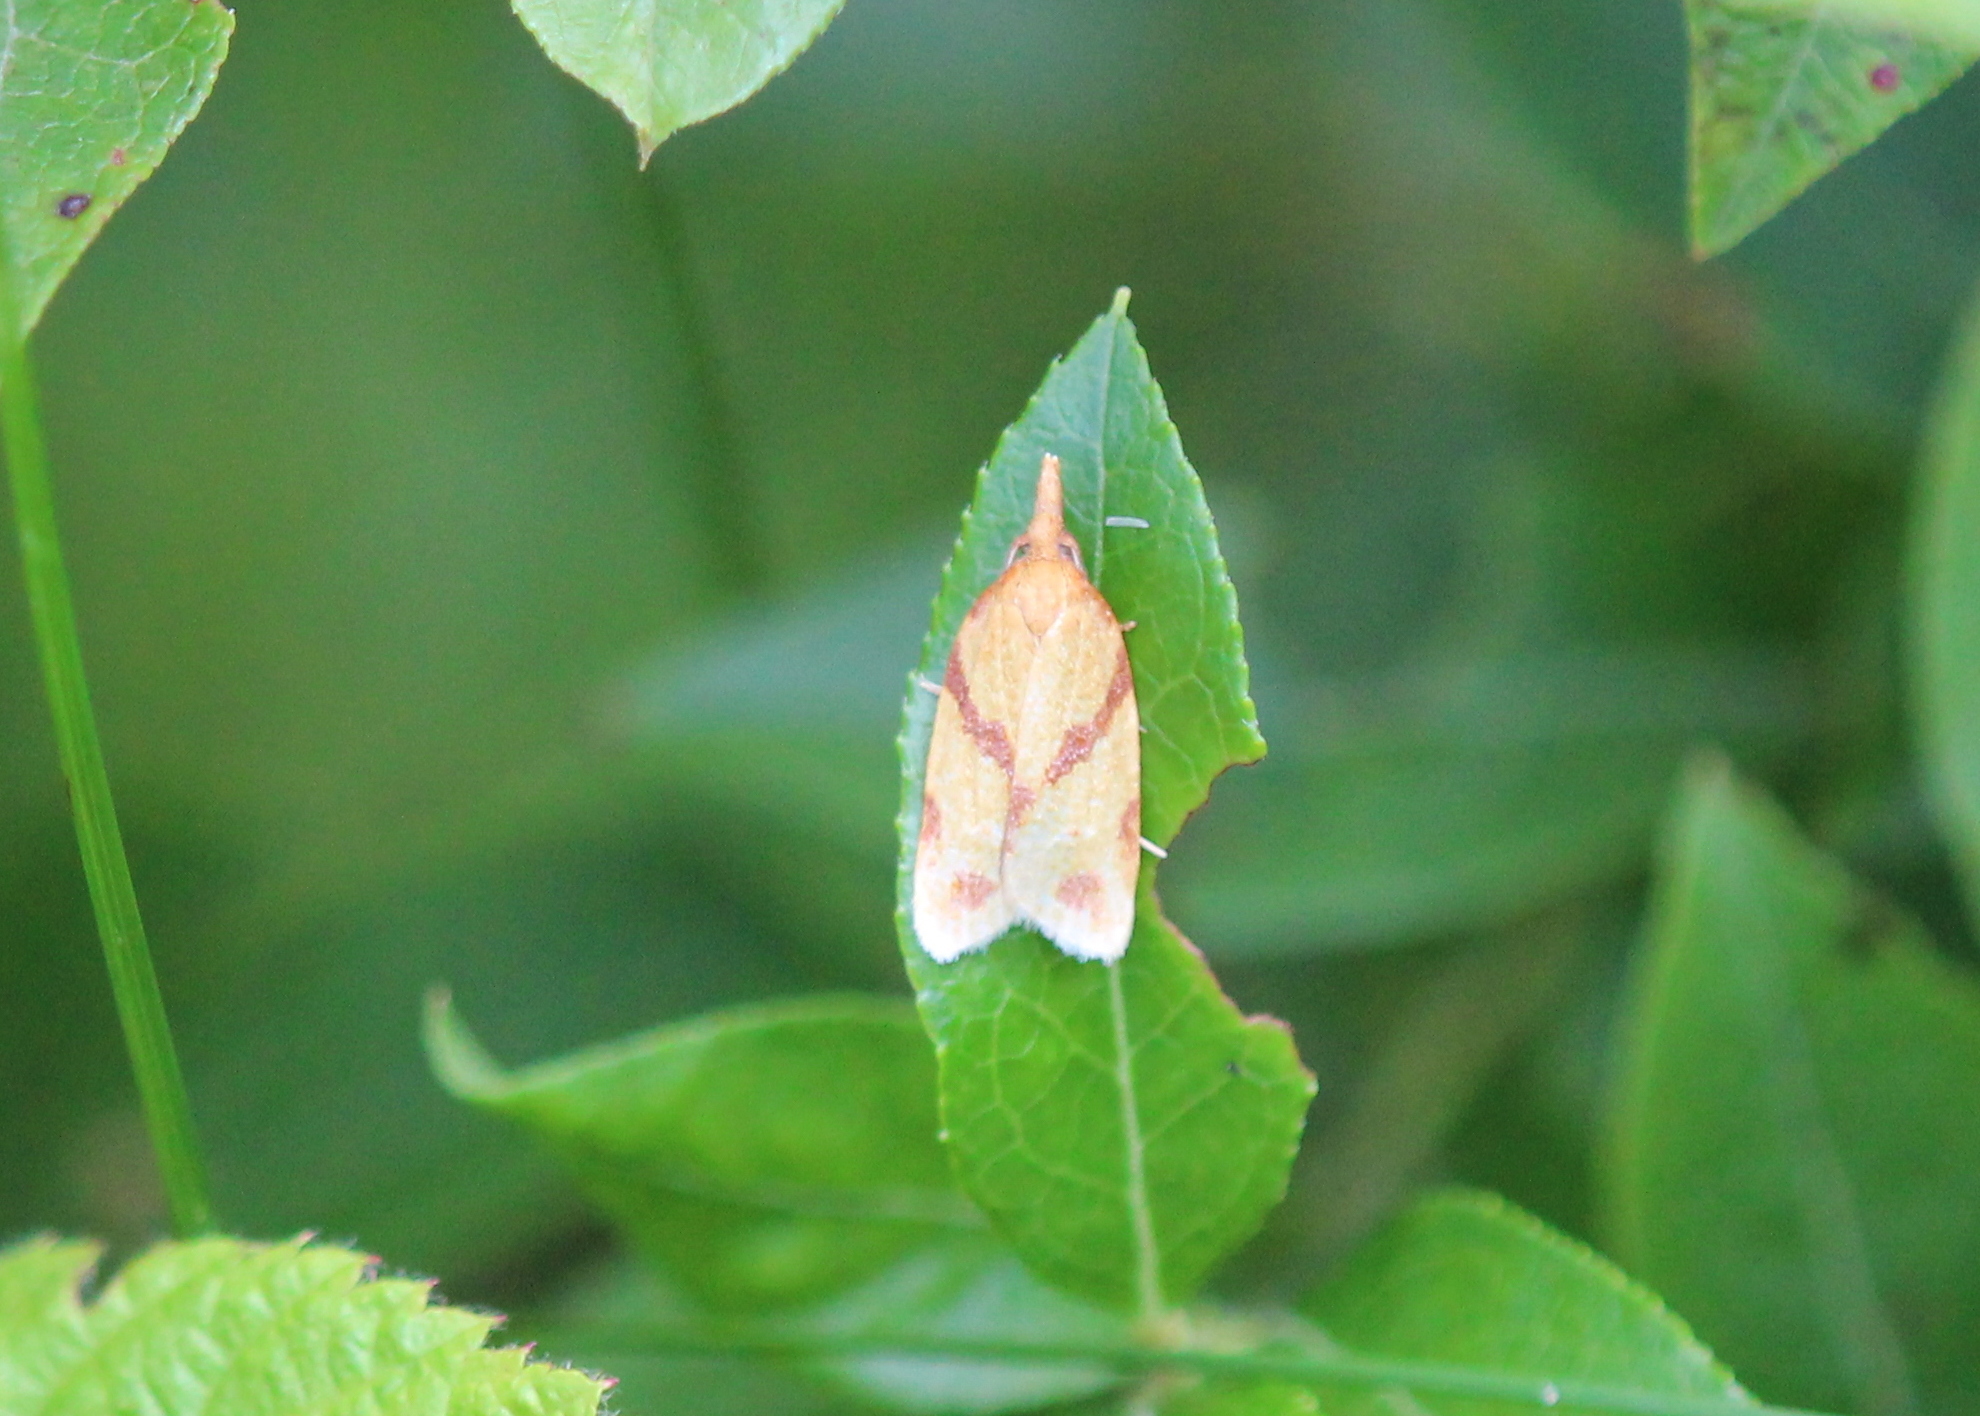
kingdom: Animalia
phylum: Arthropoda
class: Insecta
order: Lepidoptera
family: Tortricidae
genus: Sparganothis
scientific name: Sparganothis unifasciana
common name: One-lined sparganothis moth
